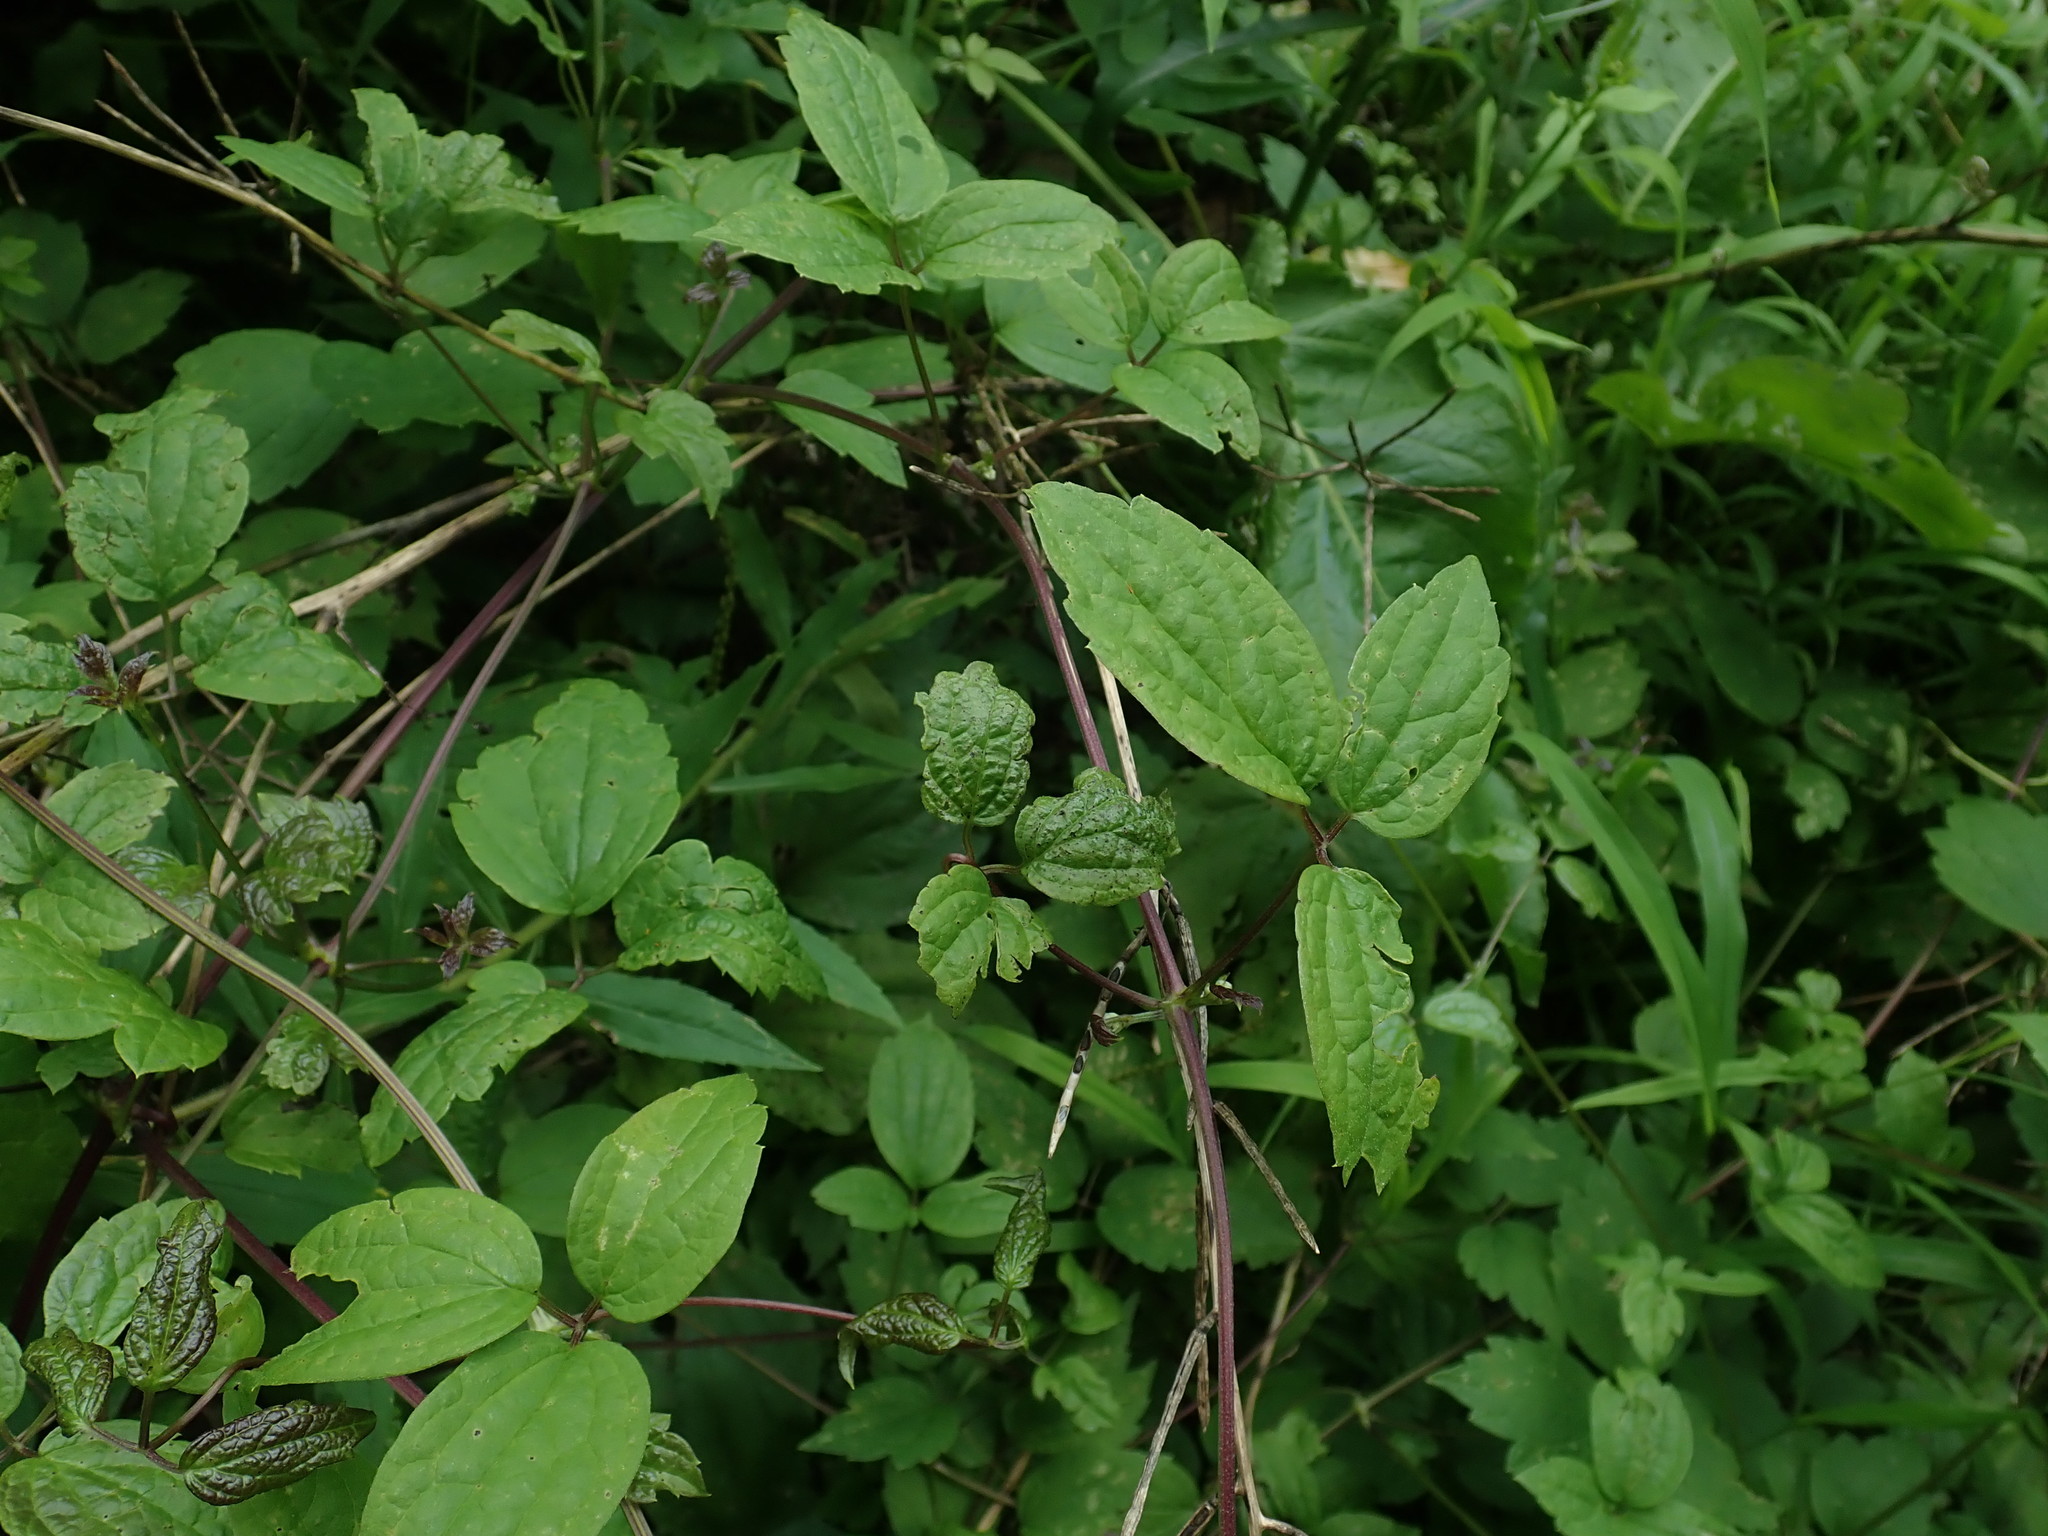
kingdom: Plantae
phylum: Tracheophyta
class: Magnoliopsida
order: Ranunculales
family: Ranunculaceae
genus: Clematis
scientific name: Clematis virginiana
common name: Virgin's-bower
